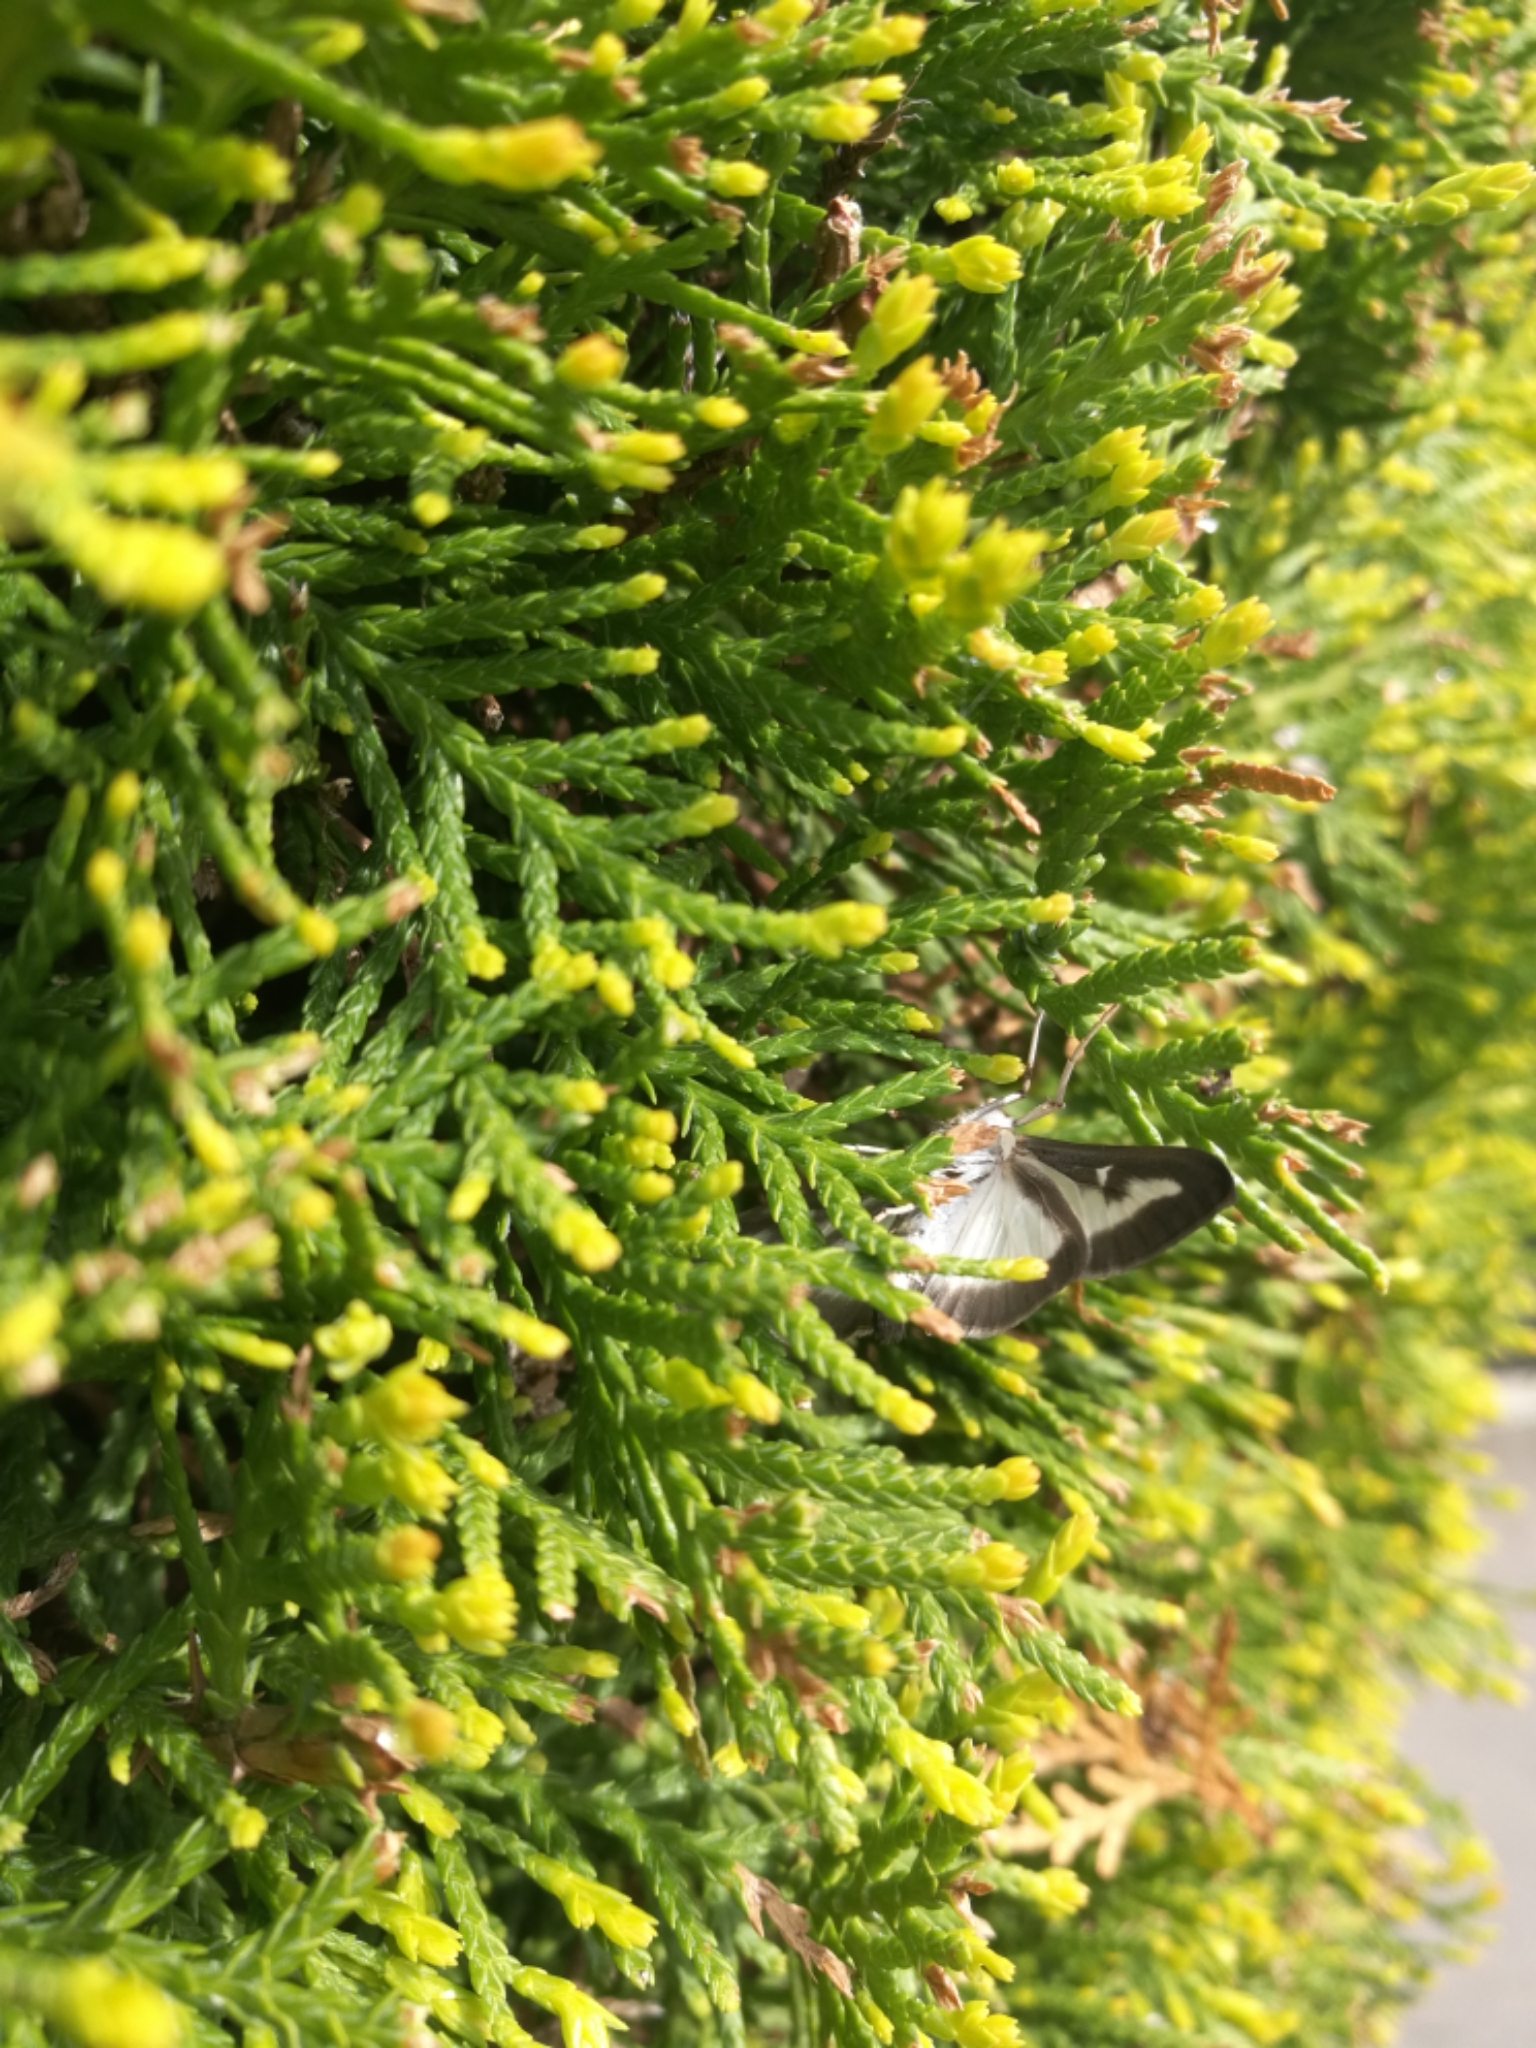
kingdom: Animalia
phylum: Arthropoda
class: Insecta
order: Lepidoptera
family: Crambidae
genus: Cydalima
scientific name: Cydalima perspectalis
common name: Box tree moth
